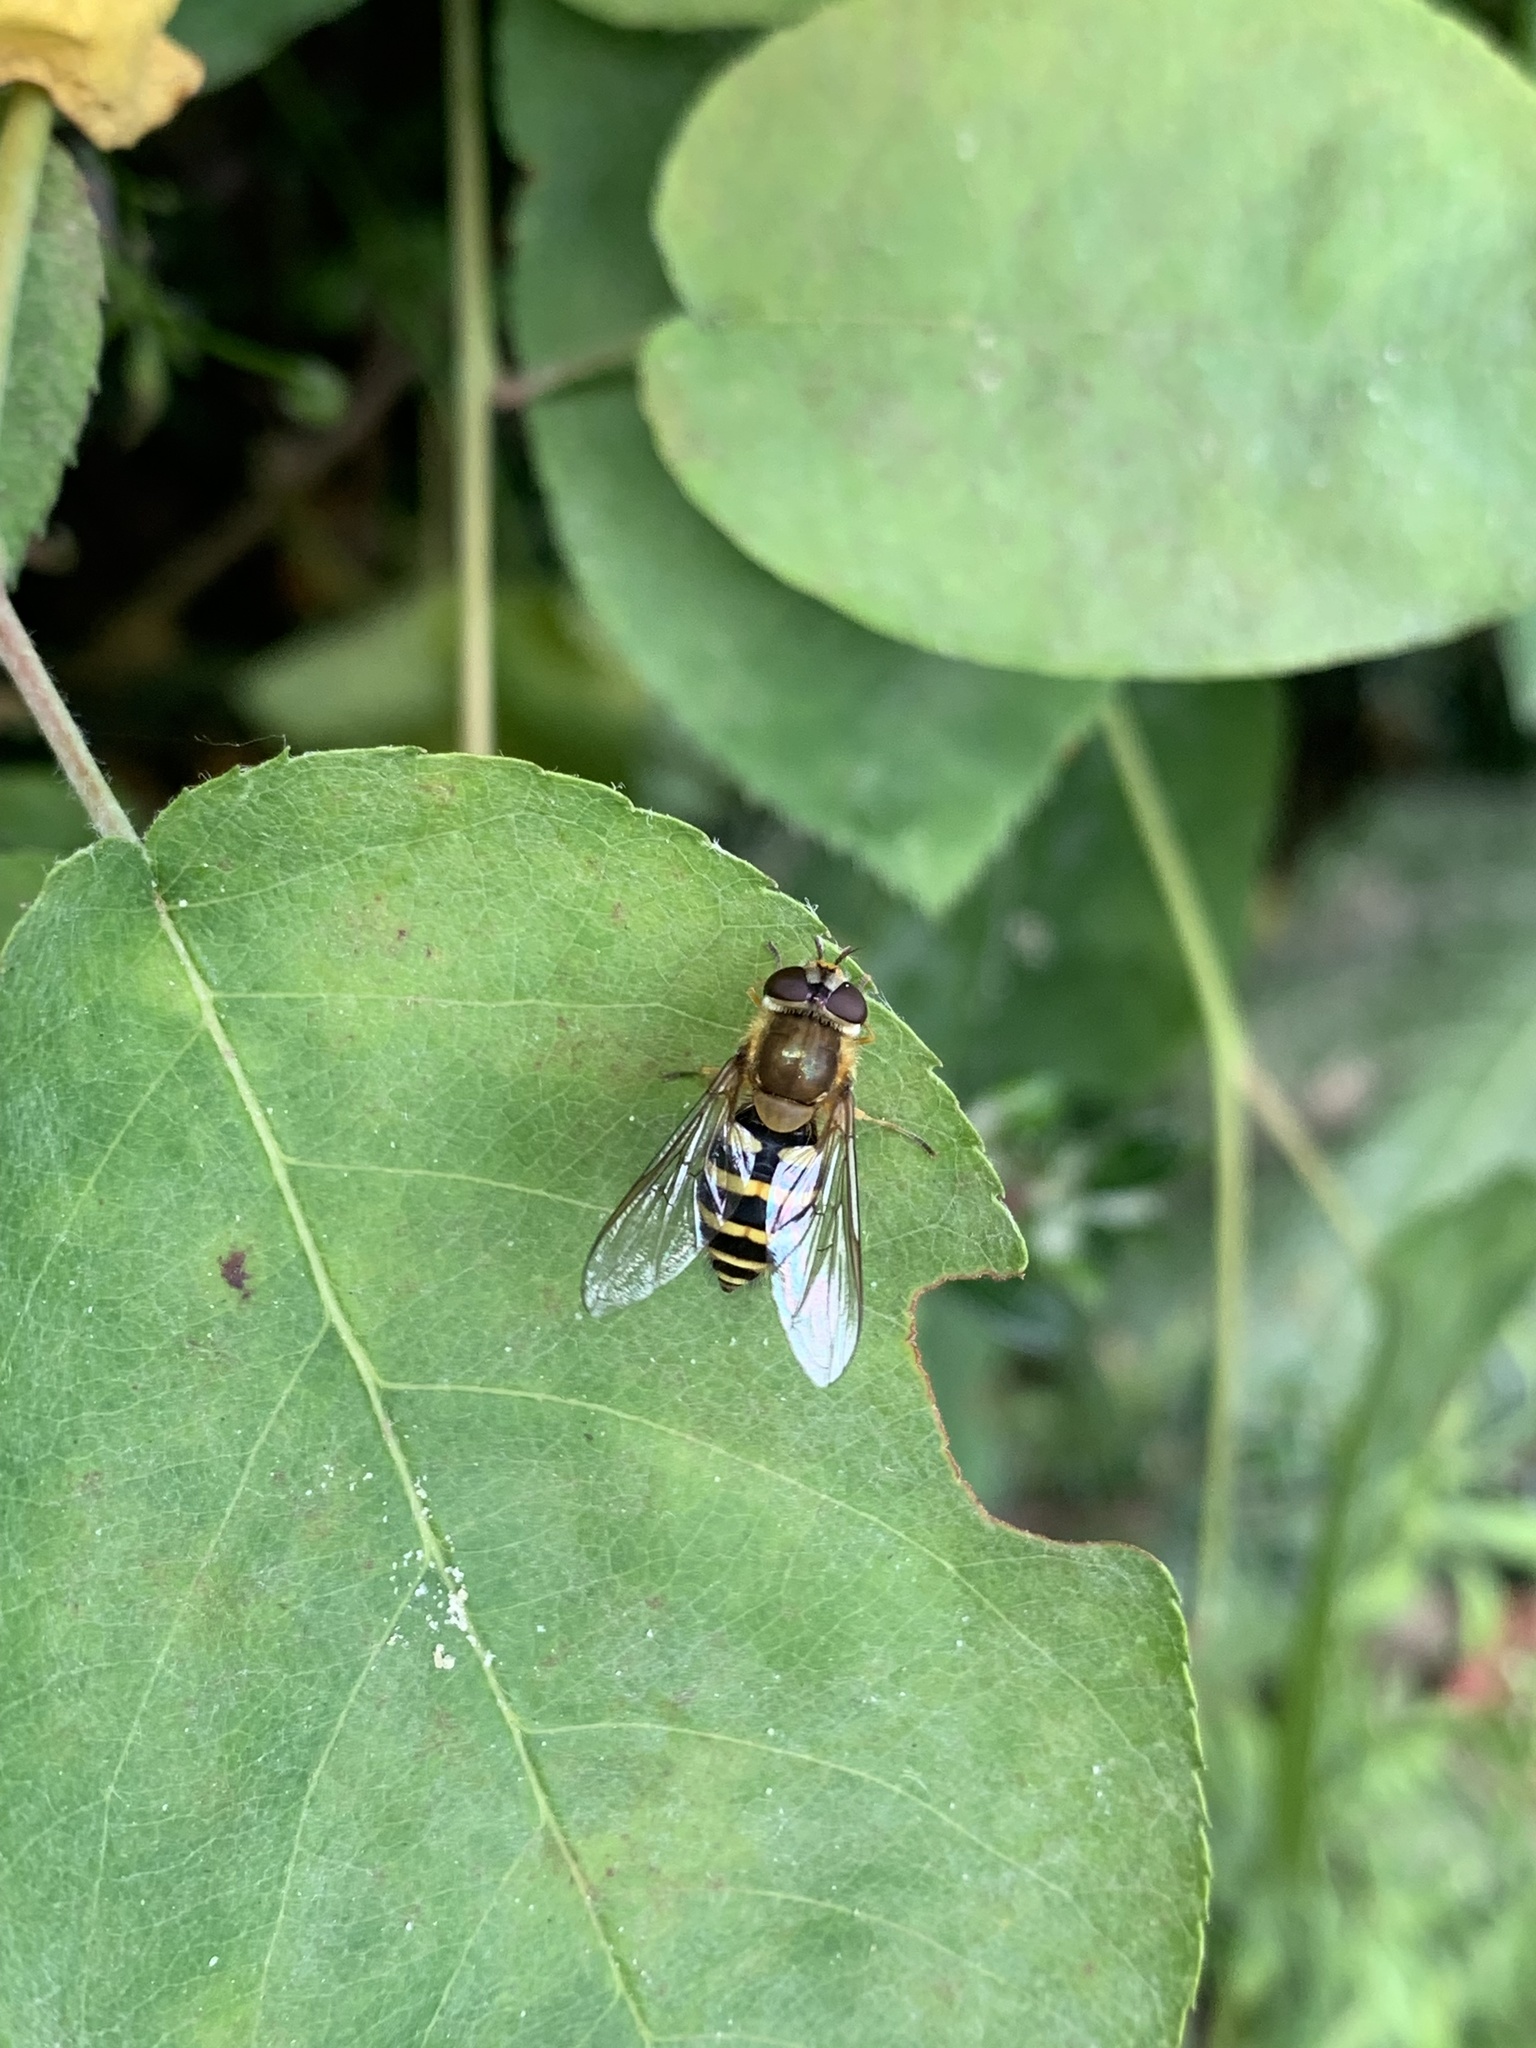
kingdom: Animalia
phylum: Arthropoda
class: Insecta
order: Diptera
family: Syrphidae
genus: Syrphus
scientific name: Syrphus
